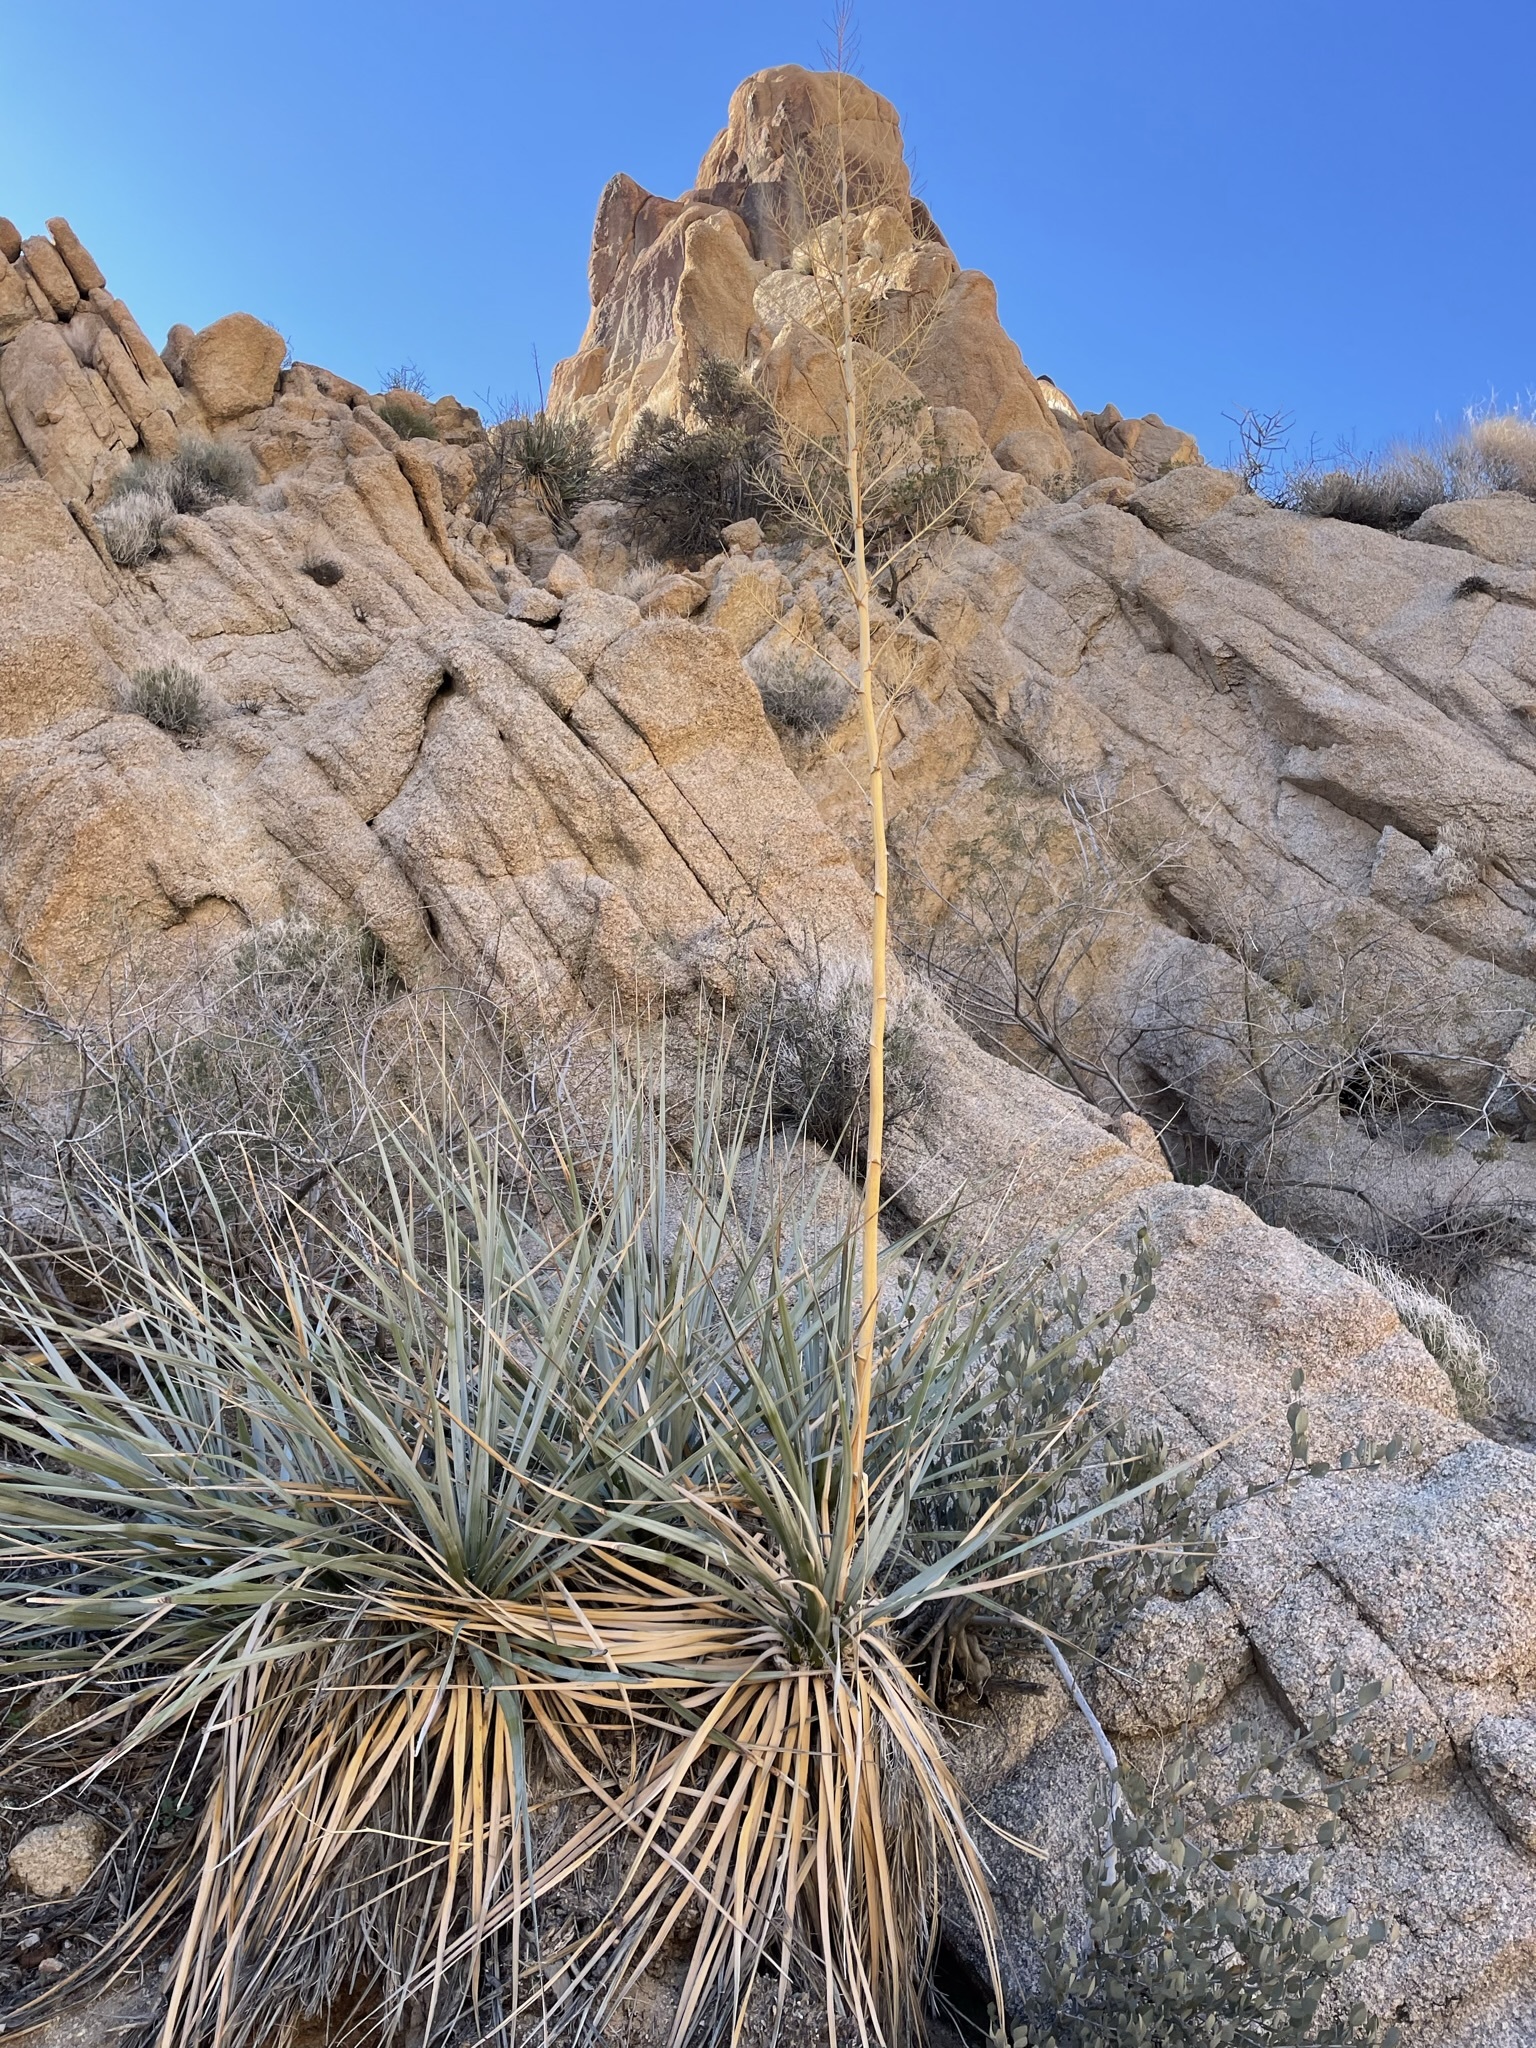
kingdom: Plantae
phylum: Tracheophyta
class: Liliopsida
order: Asparagales
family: Asparagaceae
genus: Nolina
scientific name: Nolina bigelovii
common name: Bigelow bear-grass
